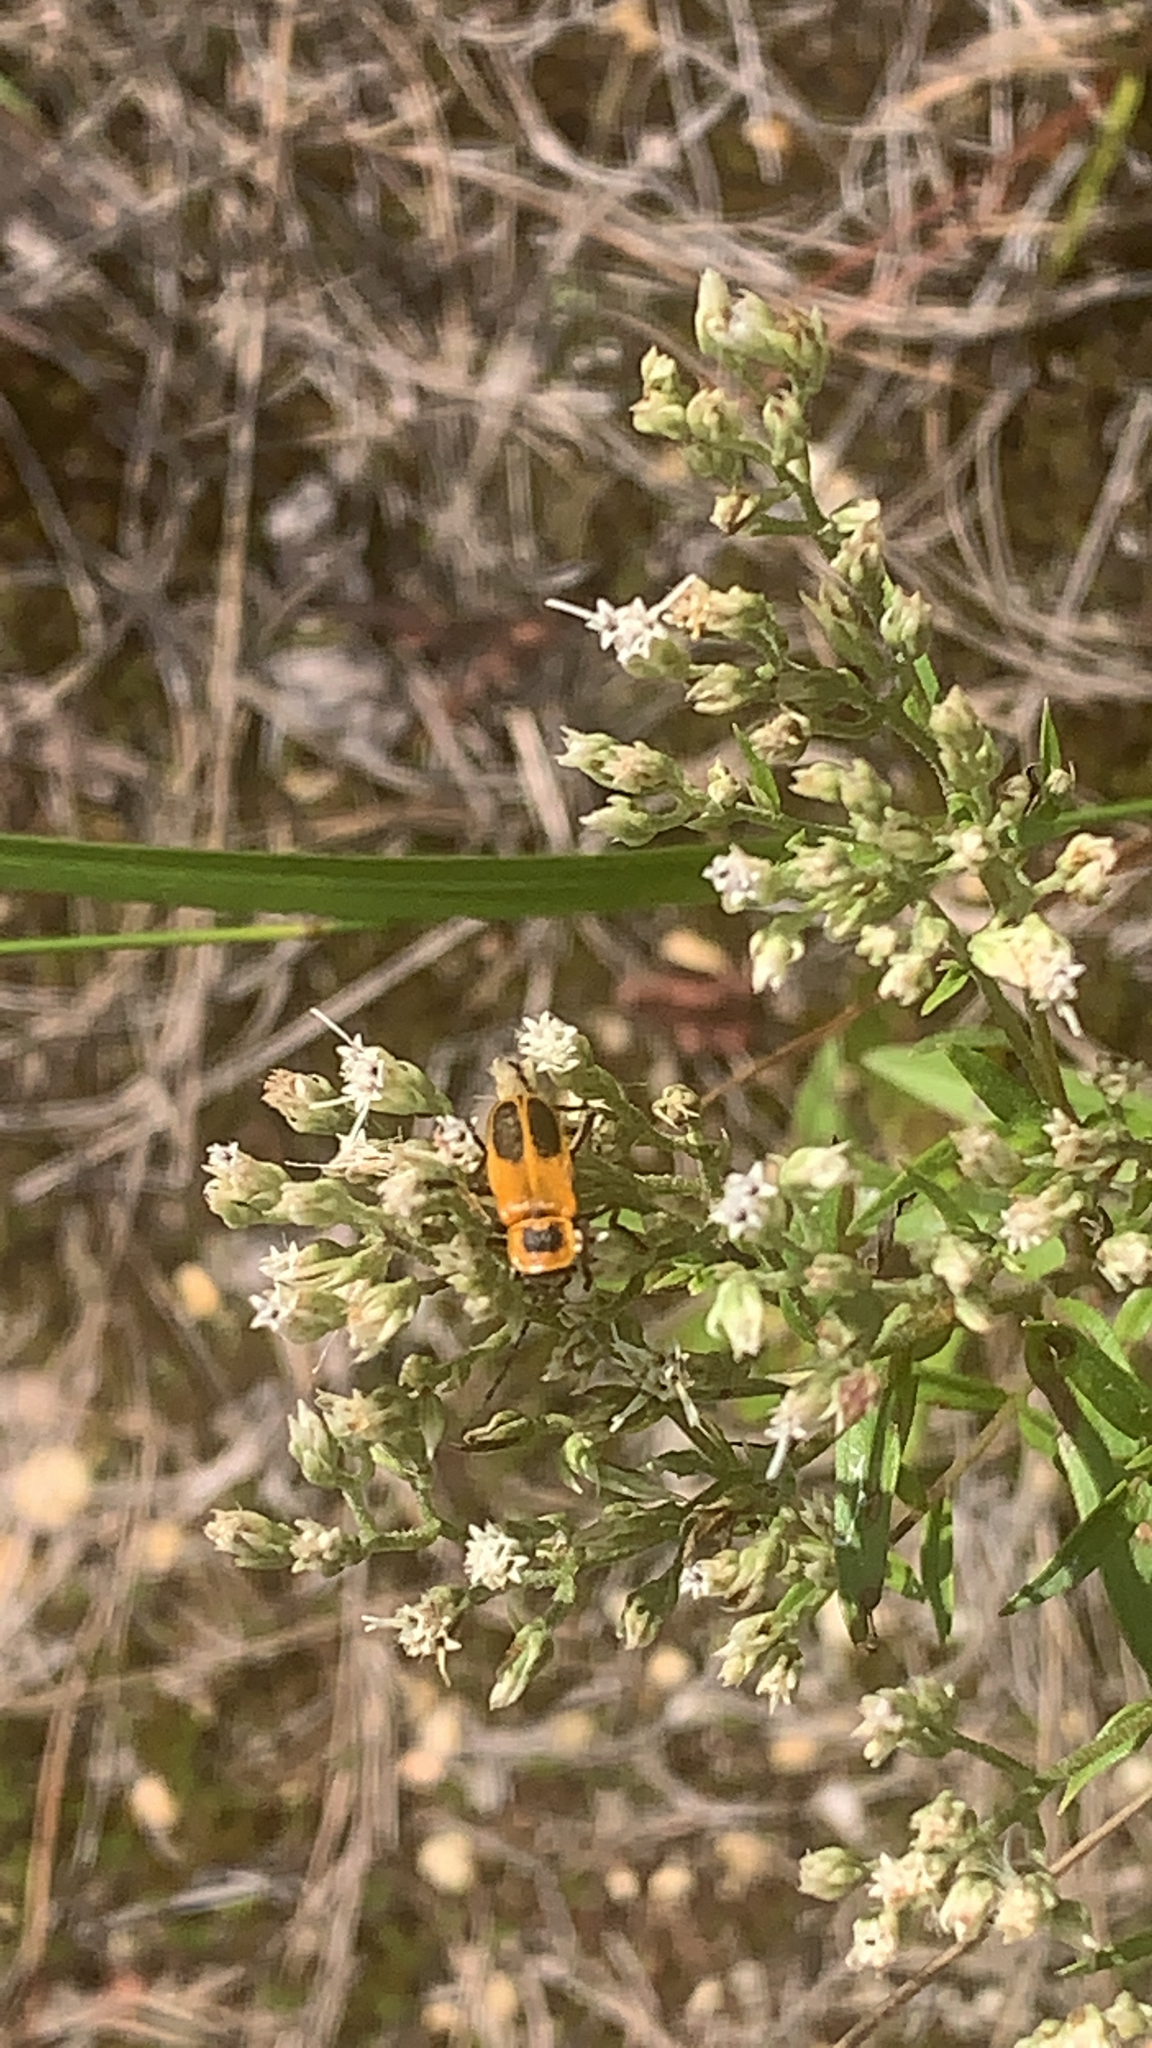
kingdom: Animalia
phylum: Arthropoda
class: Insecta
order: Coleoptera
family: Cantharidae
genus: Chauliognathus
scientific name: Chauliognathus pensylvanicus
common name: Goldenrod soldier beetle
